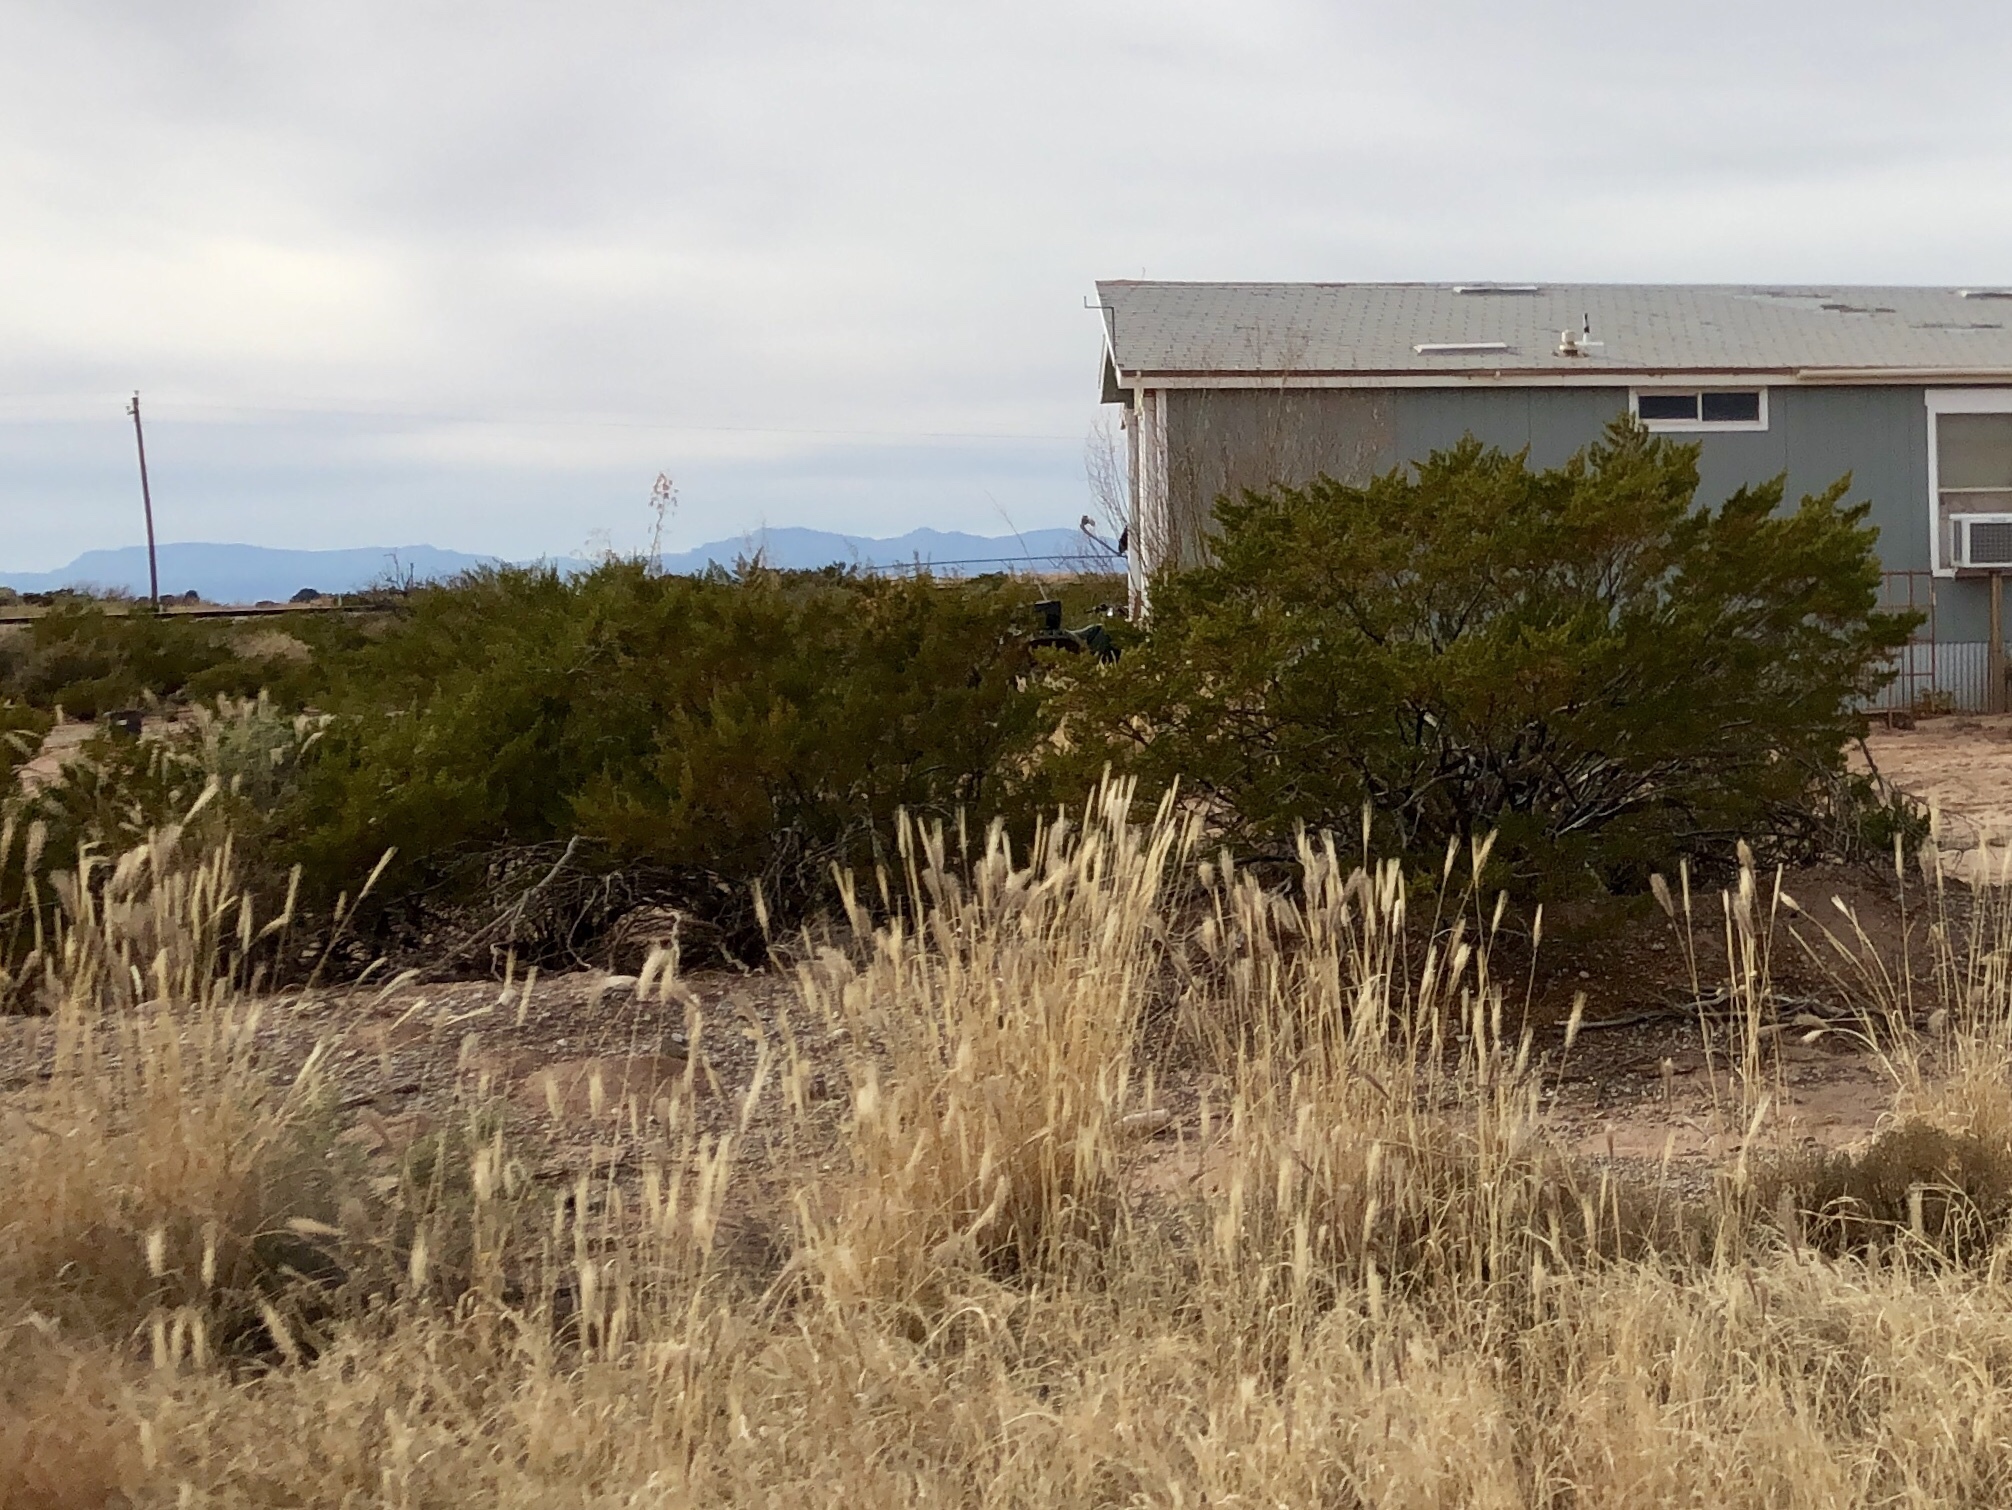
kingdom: Plantae
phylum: Tracheophyta
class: Magnoliopsida
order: Zygophyllales
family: Zygophyllaceae
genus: Larrea
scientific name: Larrea tridentata
